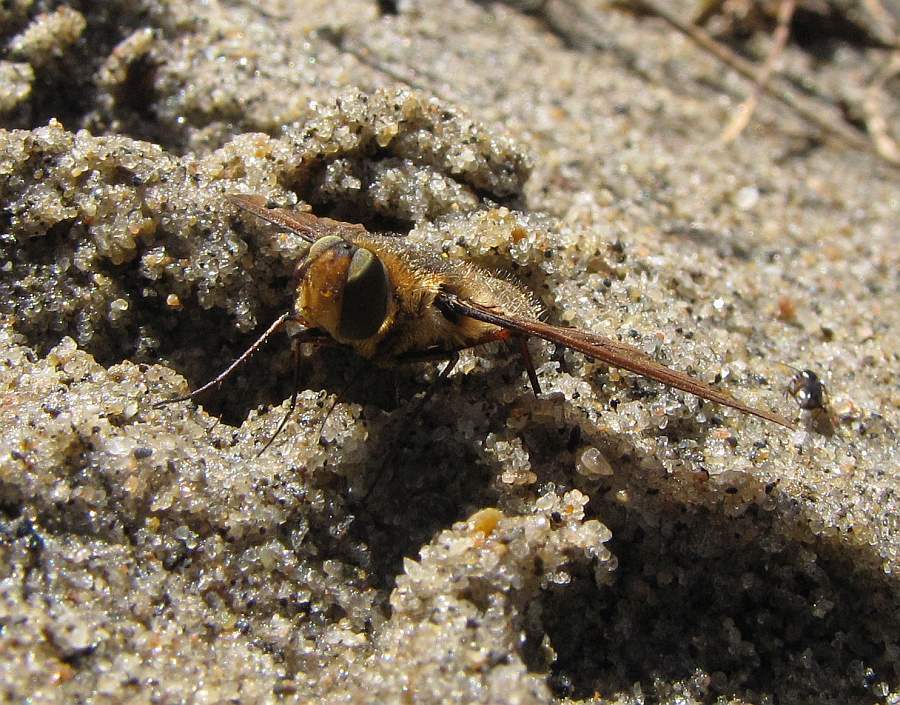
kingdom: Animalia
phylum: Arthropoda
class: Insecta
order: Diptera
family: Bombyliidae
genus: Poecilanthrax
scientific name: Poecilanthrax tegminipennis
